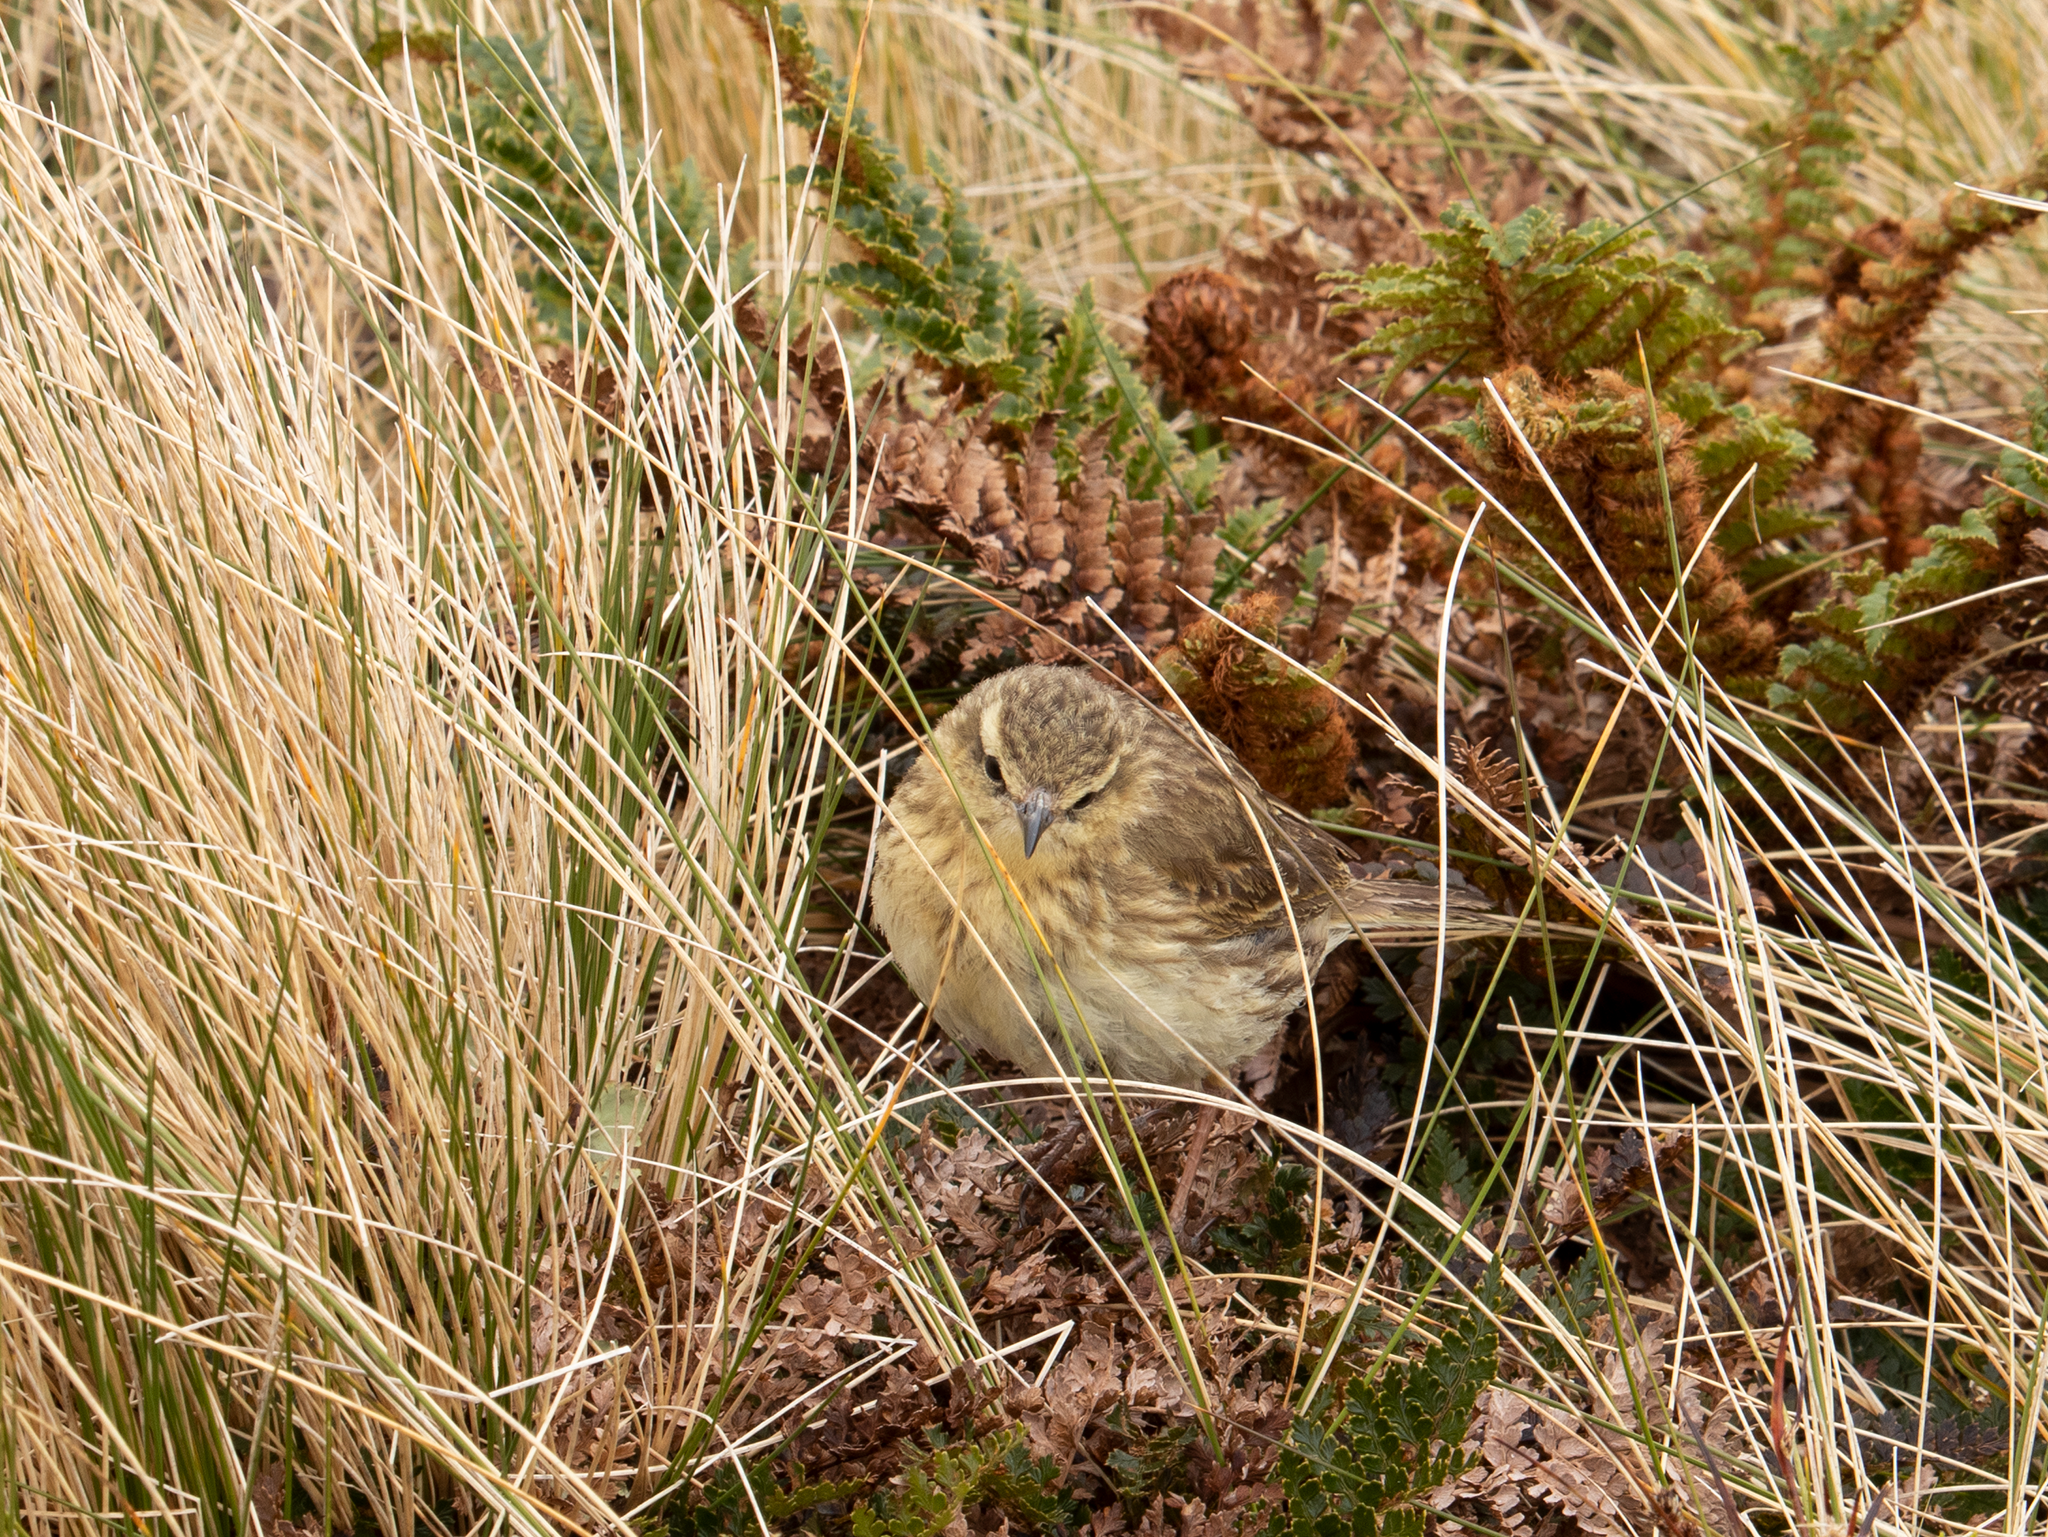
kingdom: Animalia
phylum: Chordata
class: Aves
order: Passeriformes
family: Motacillidae
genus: Anthus
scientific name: Anthus novaeseelandiae
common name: New zealand pipit
